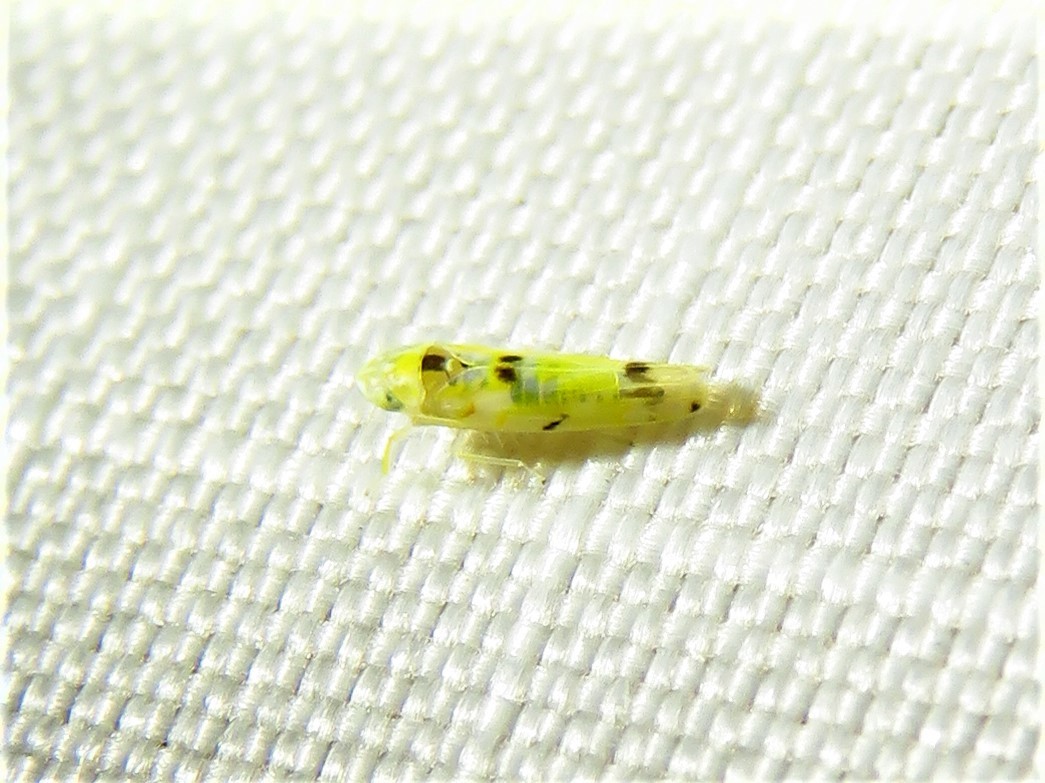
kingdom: Animalia
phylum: Arthropoda
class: Insecta
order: Hemiptera
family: Cicadellidae
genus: Erythroneura
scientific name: Erythroneura octonotata
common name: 8-spotted leafhopper
